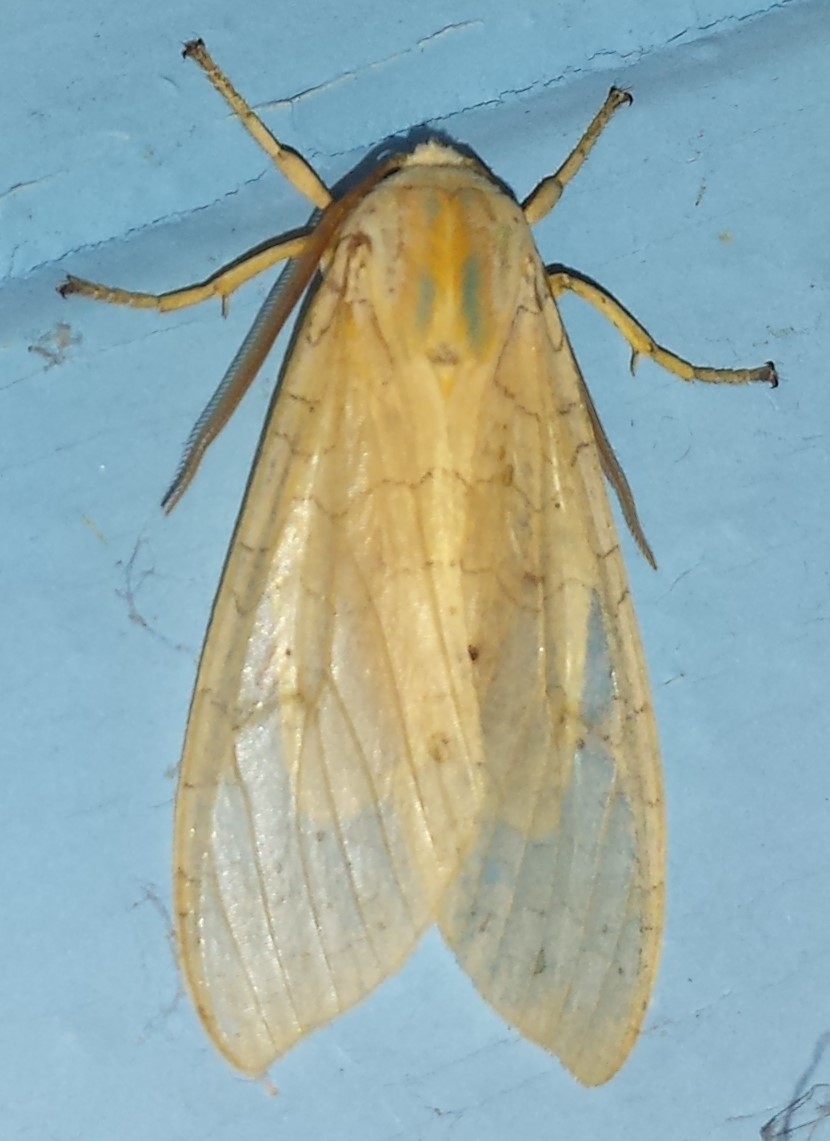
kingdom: Animalia
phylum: Arthropoda
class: Insecta
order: Lepidoptera
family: Erebidae
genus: Halysidota
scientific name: Halysidota tessellaris
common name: Banded tussock moth
